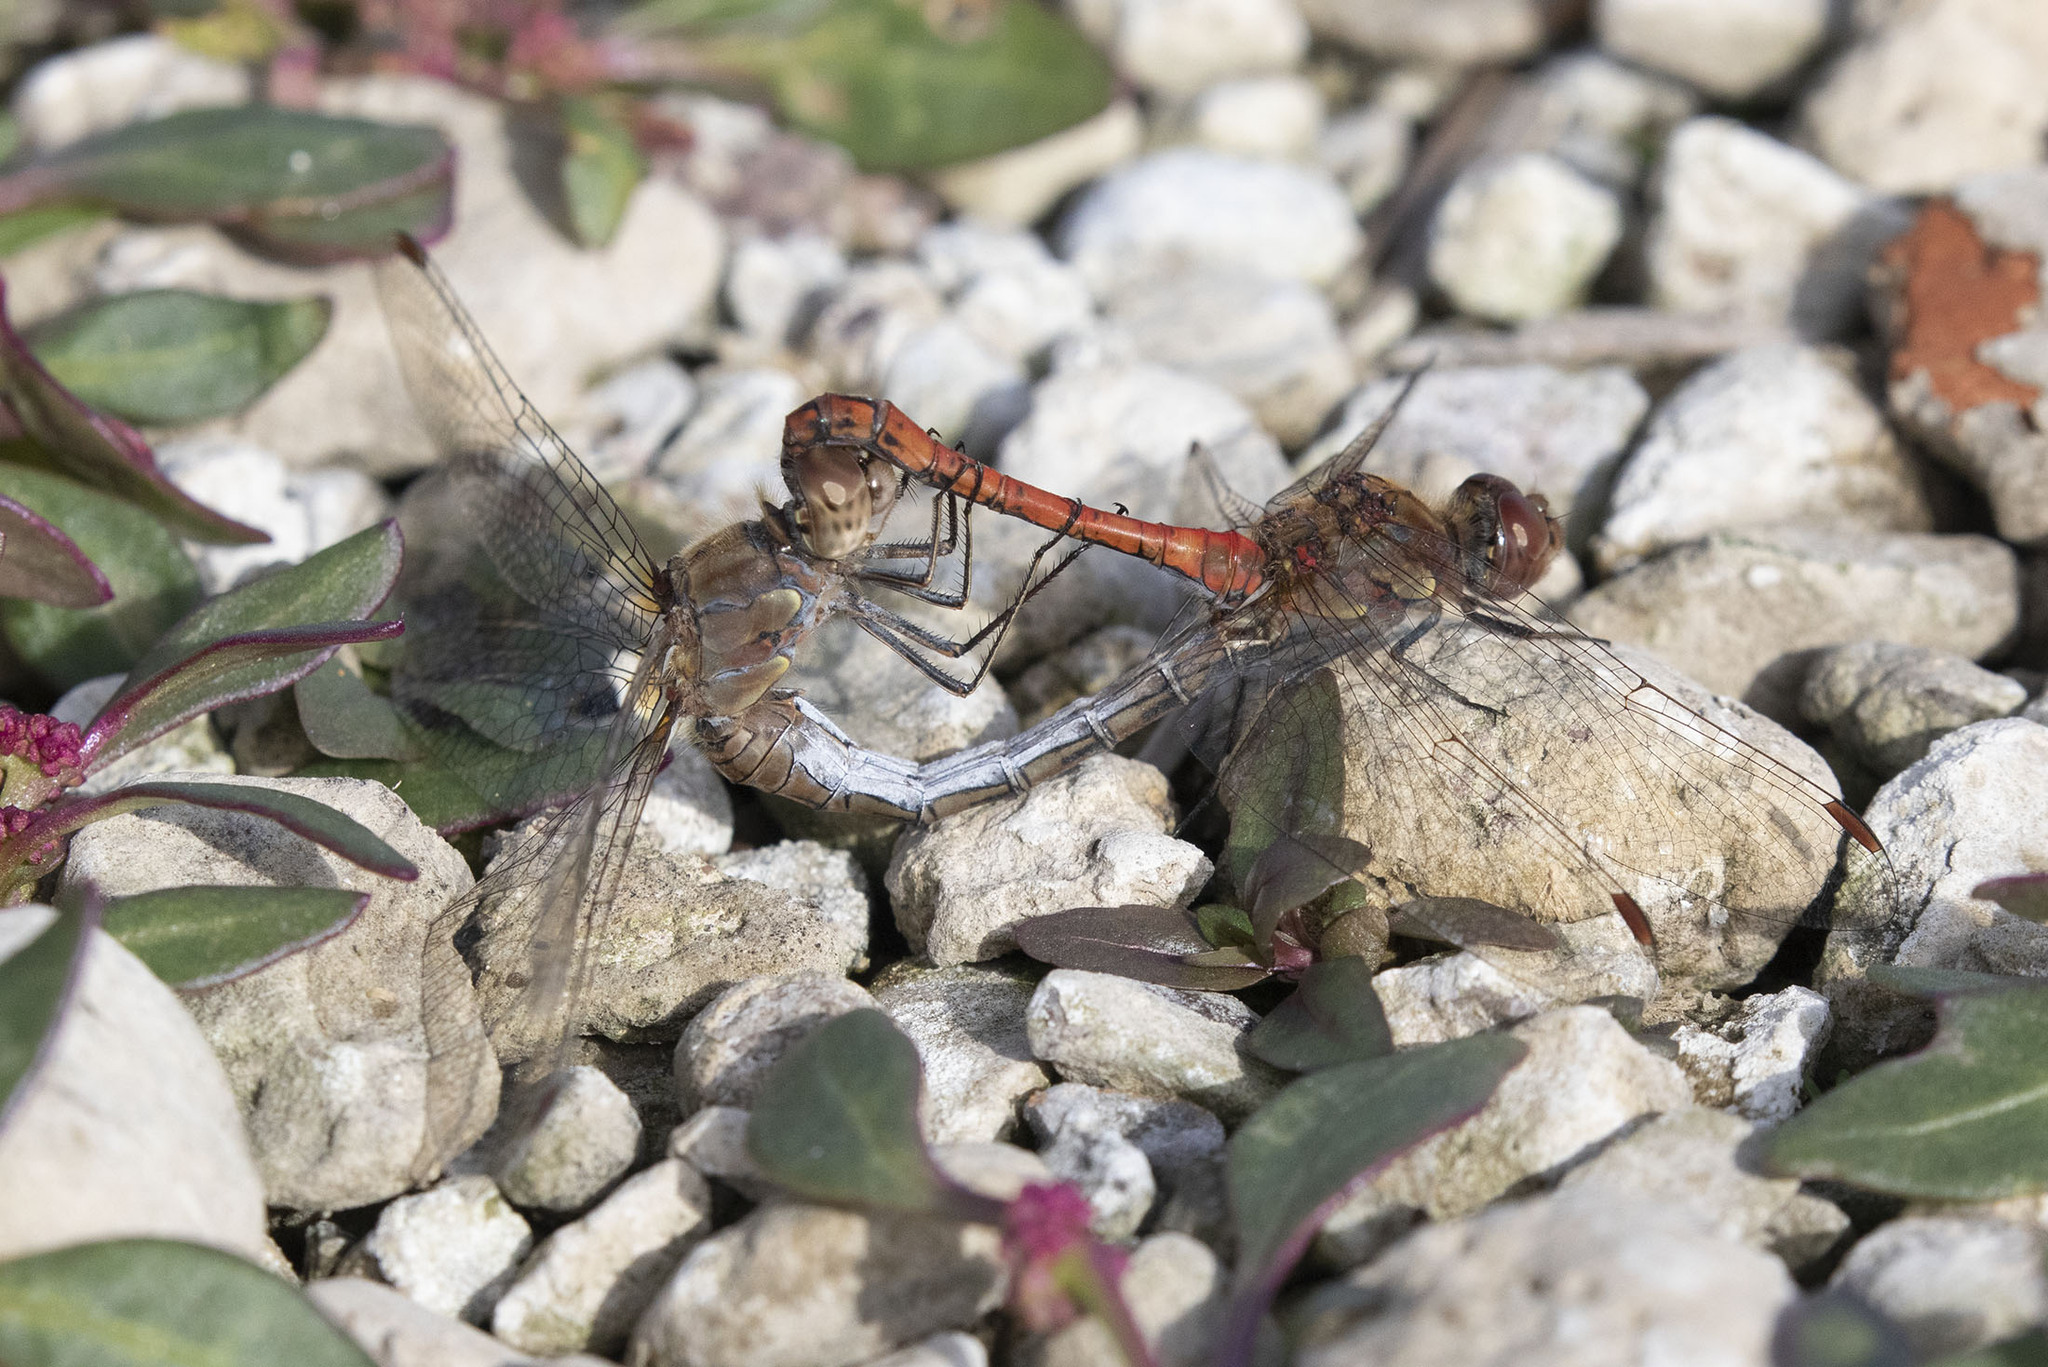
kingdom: Animalia
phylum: Arthropoda
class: Insecta
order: Odonata
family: Libellulidae
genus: Sympetrum
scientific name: Sympetrum striolatum
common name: Common darter
